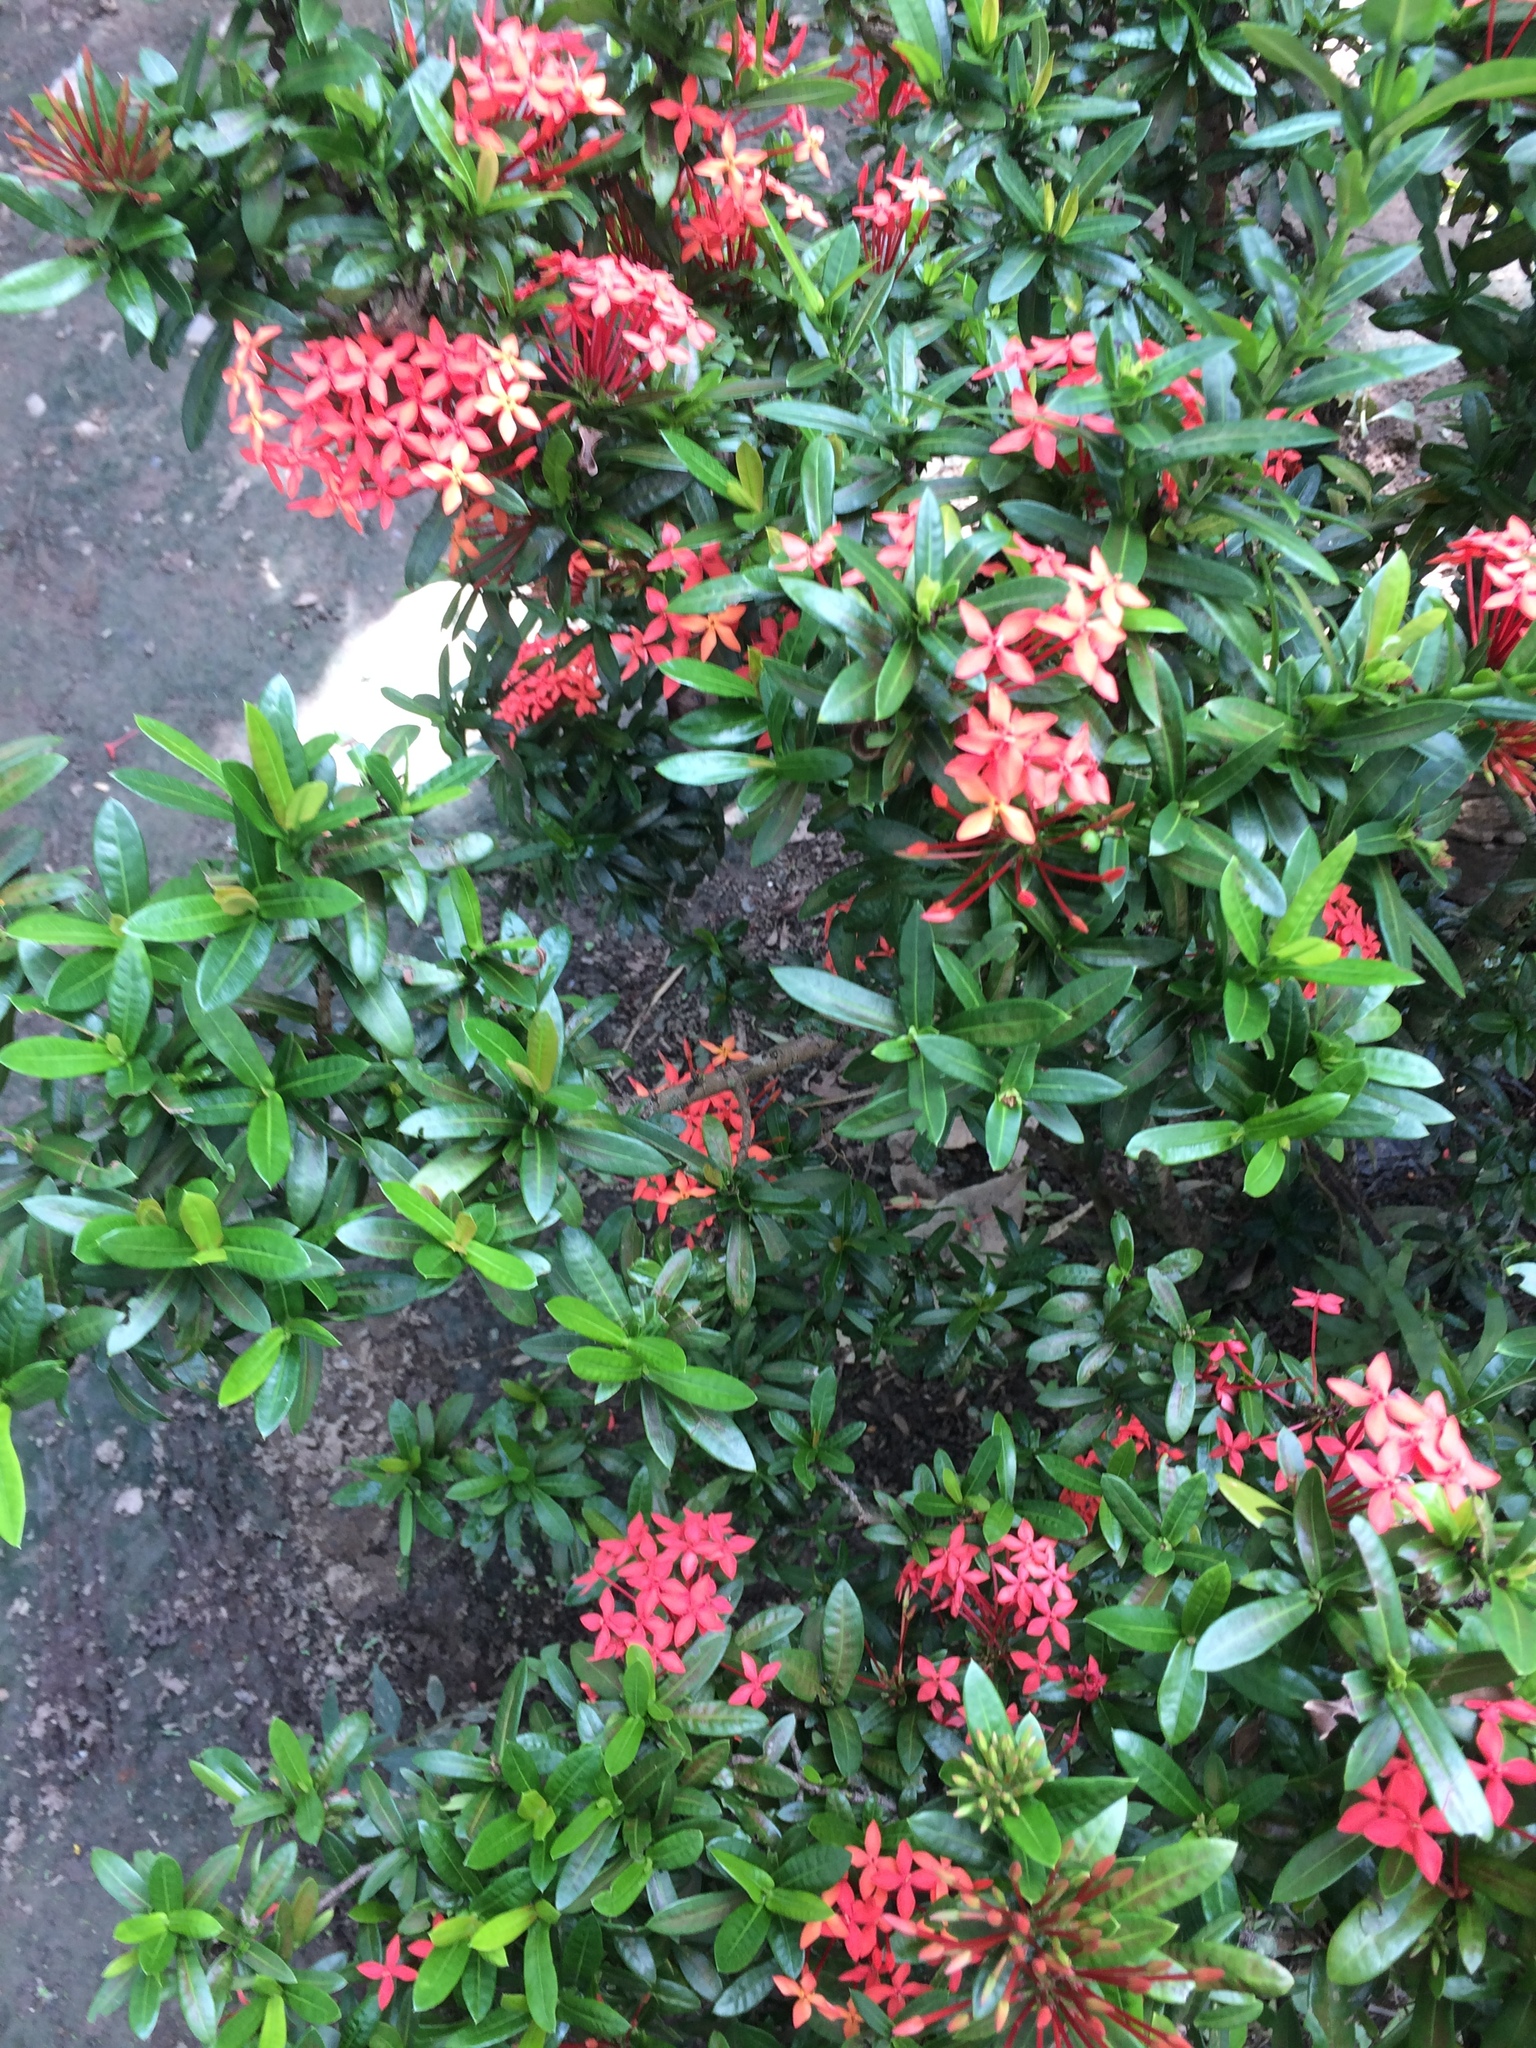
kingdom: Plantae
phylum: Tracheophyta
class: Magnoliopsida
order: Gentianales
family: Rubiaceae
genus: Ixora
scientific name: Ixora coccinea
